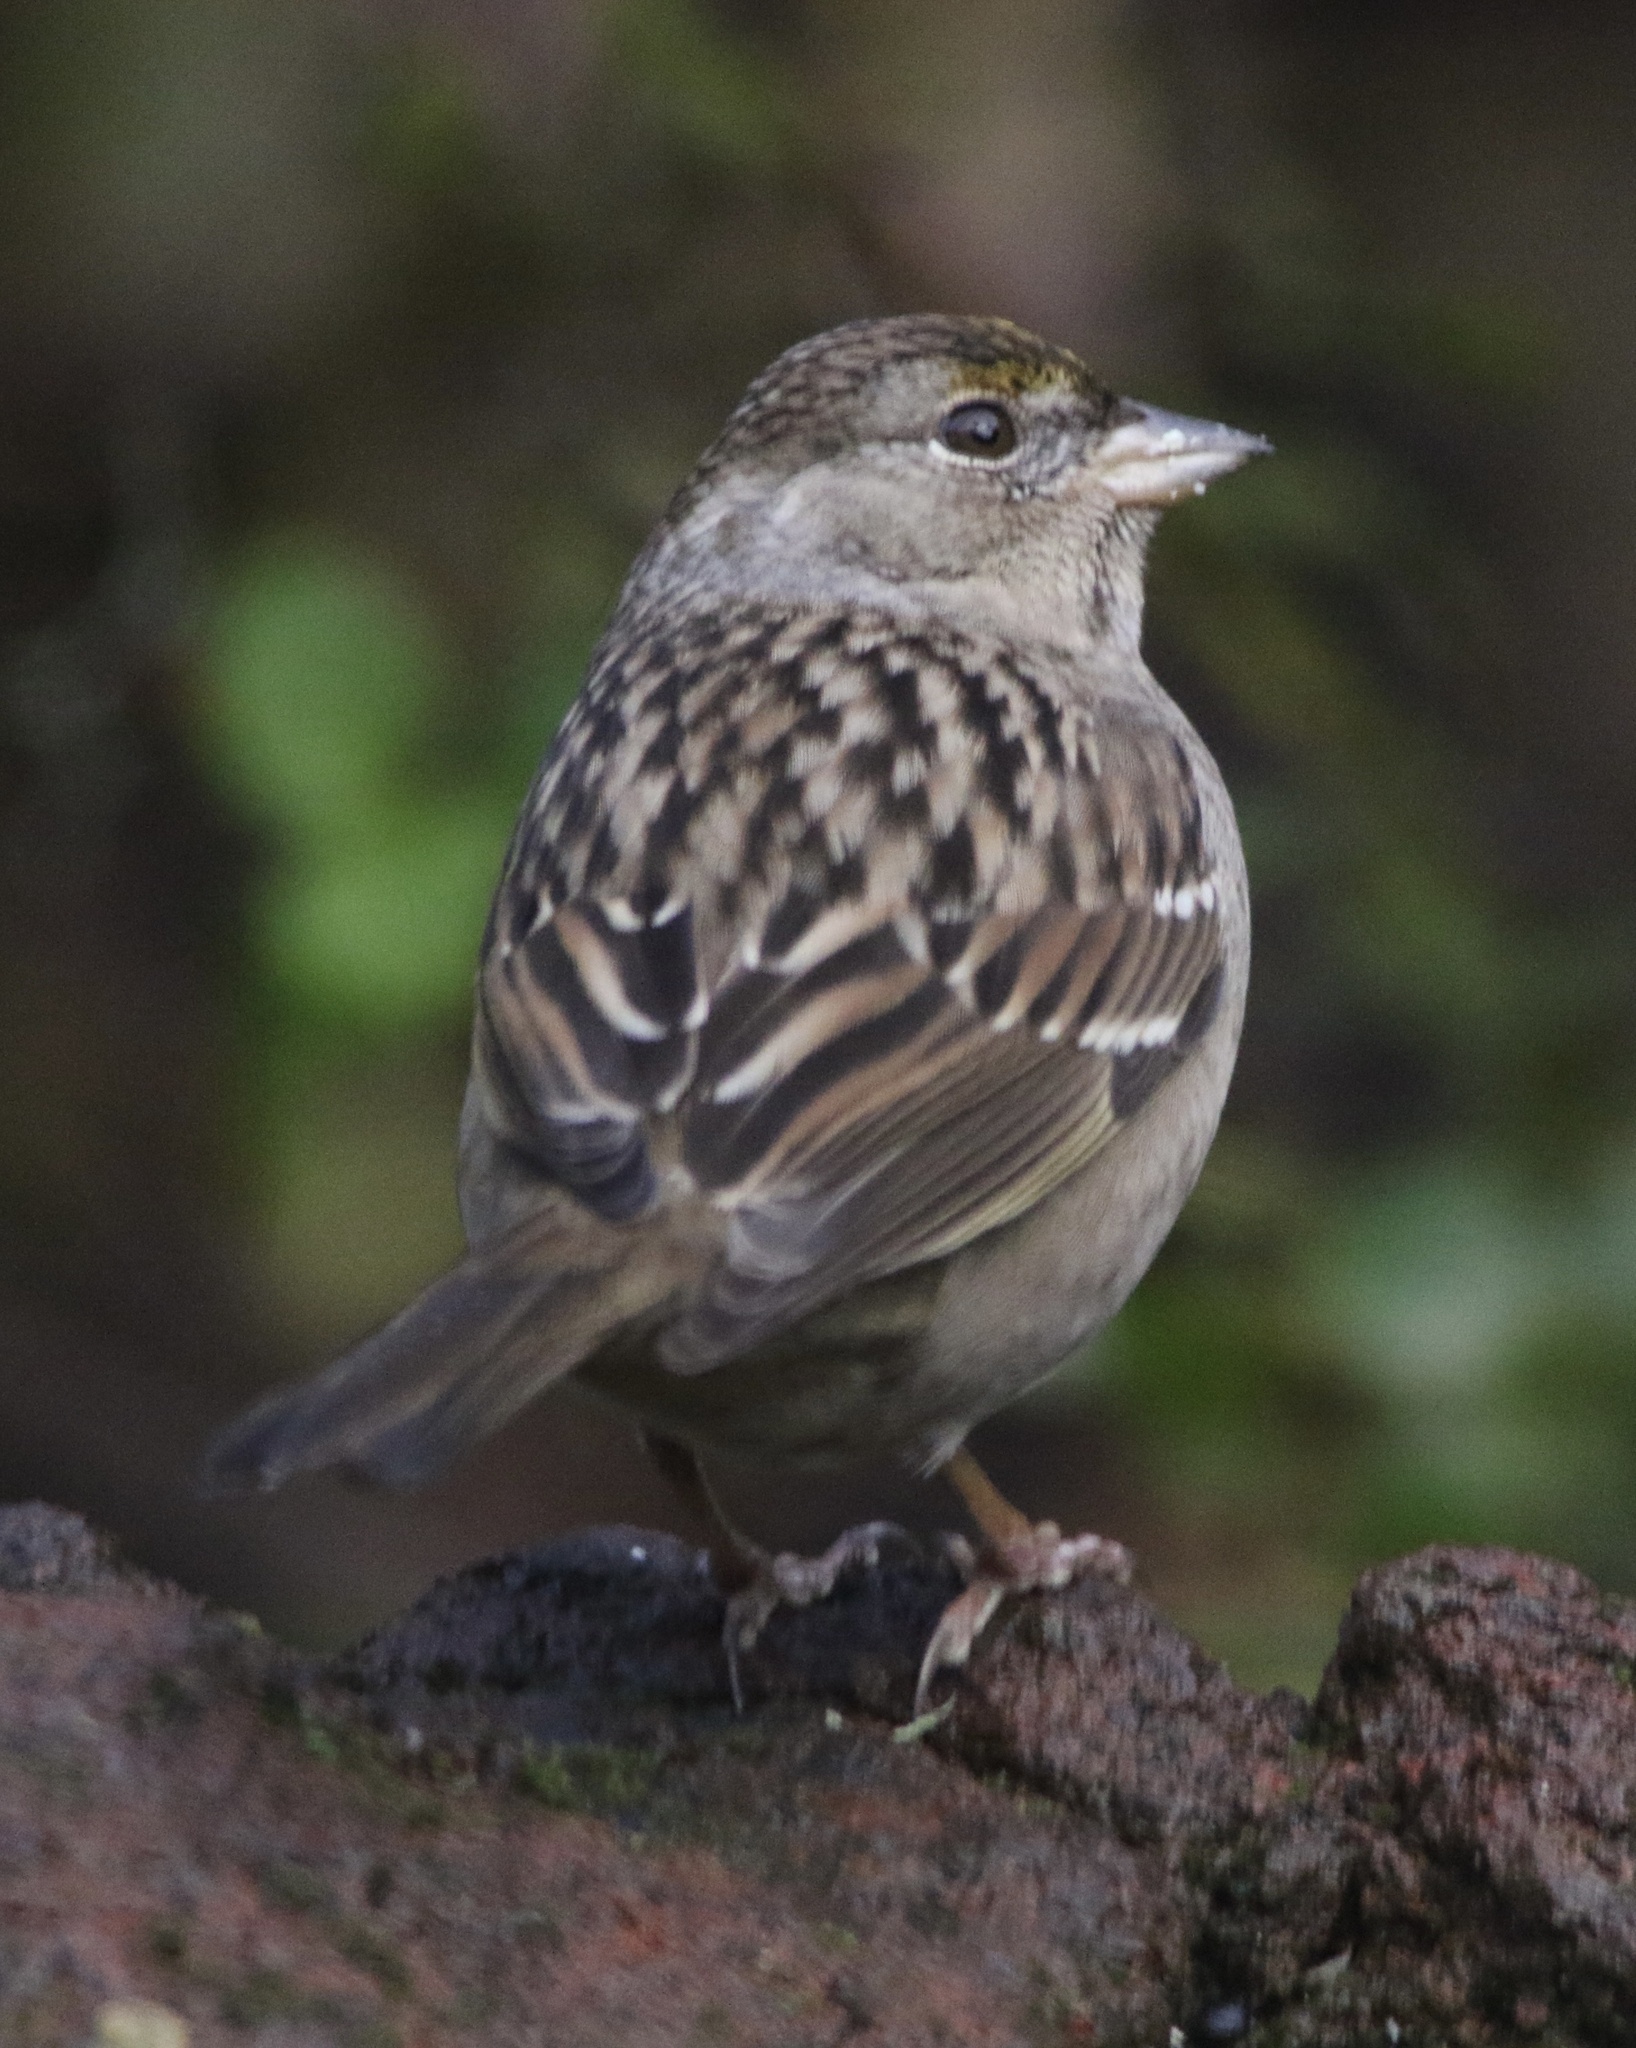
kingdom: Animalia
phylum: Chordata
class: Aves
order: Passeriformes
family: Passerellidae
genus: Zonotrichia
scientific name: Zonotrichia atricapilla
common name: Golden-crowned sparrow
